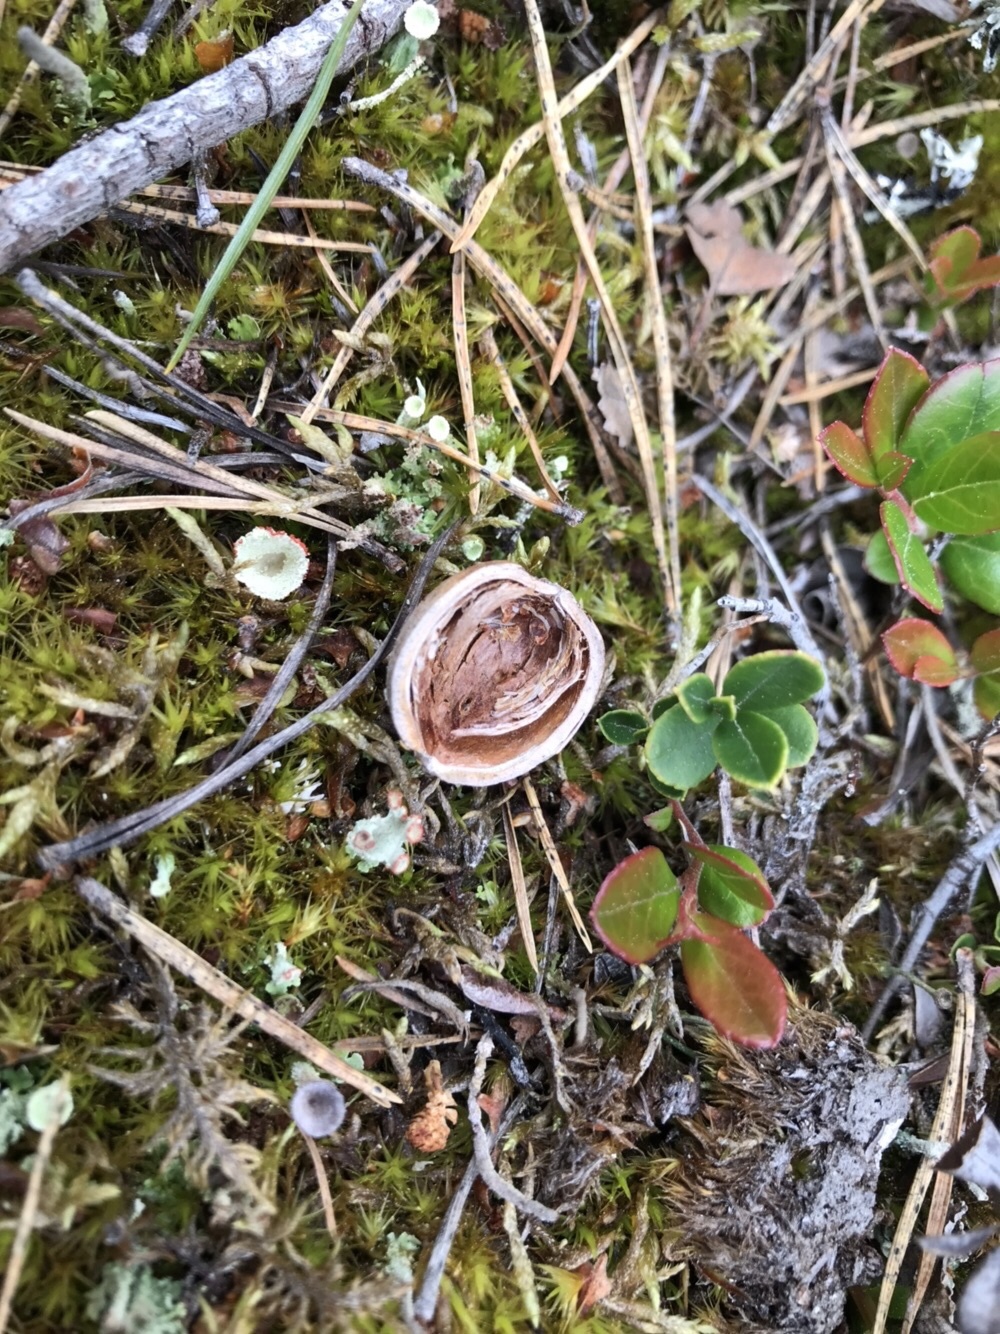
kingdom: Animalia
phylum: Chordata
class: Mammalia
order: Rodentia
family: Sciuridae
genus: Sciurus
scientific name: Sciurus vulgaris
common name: Eurasian red squirrel
